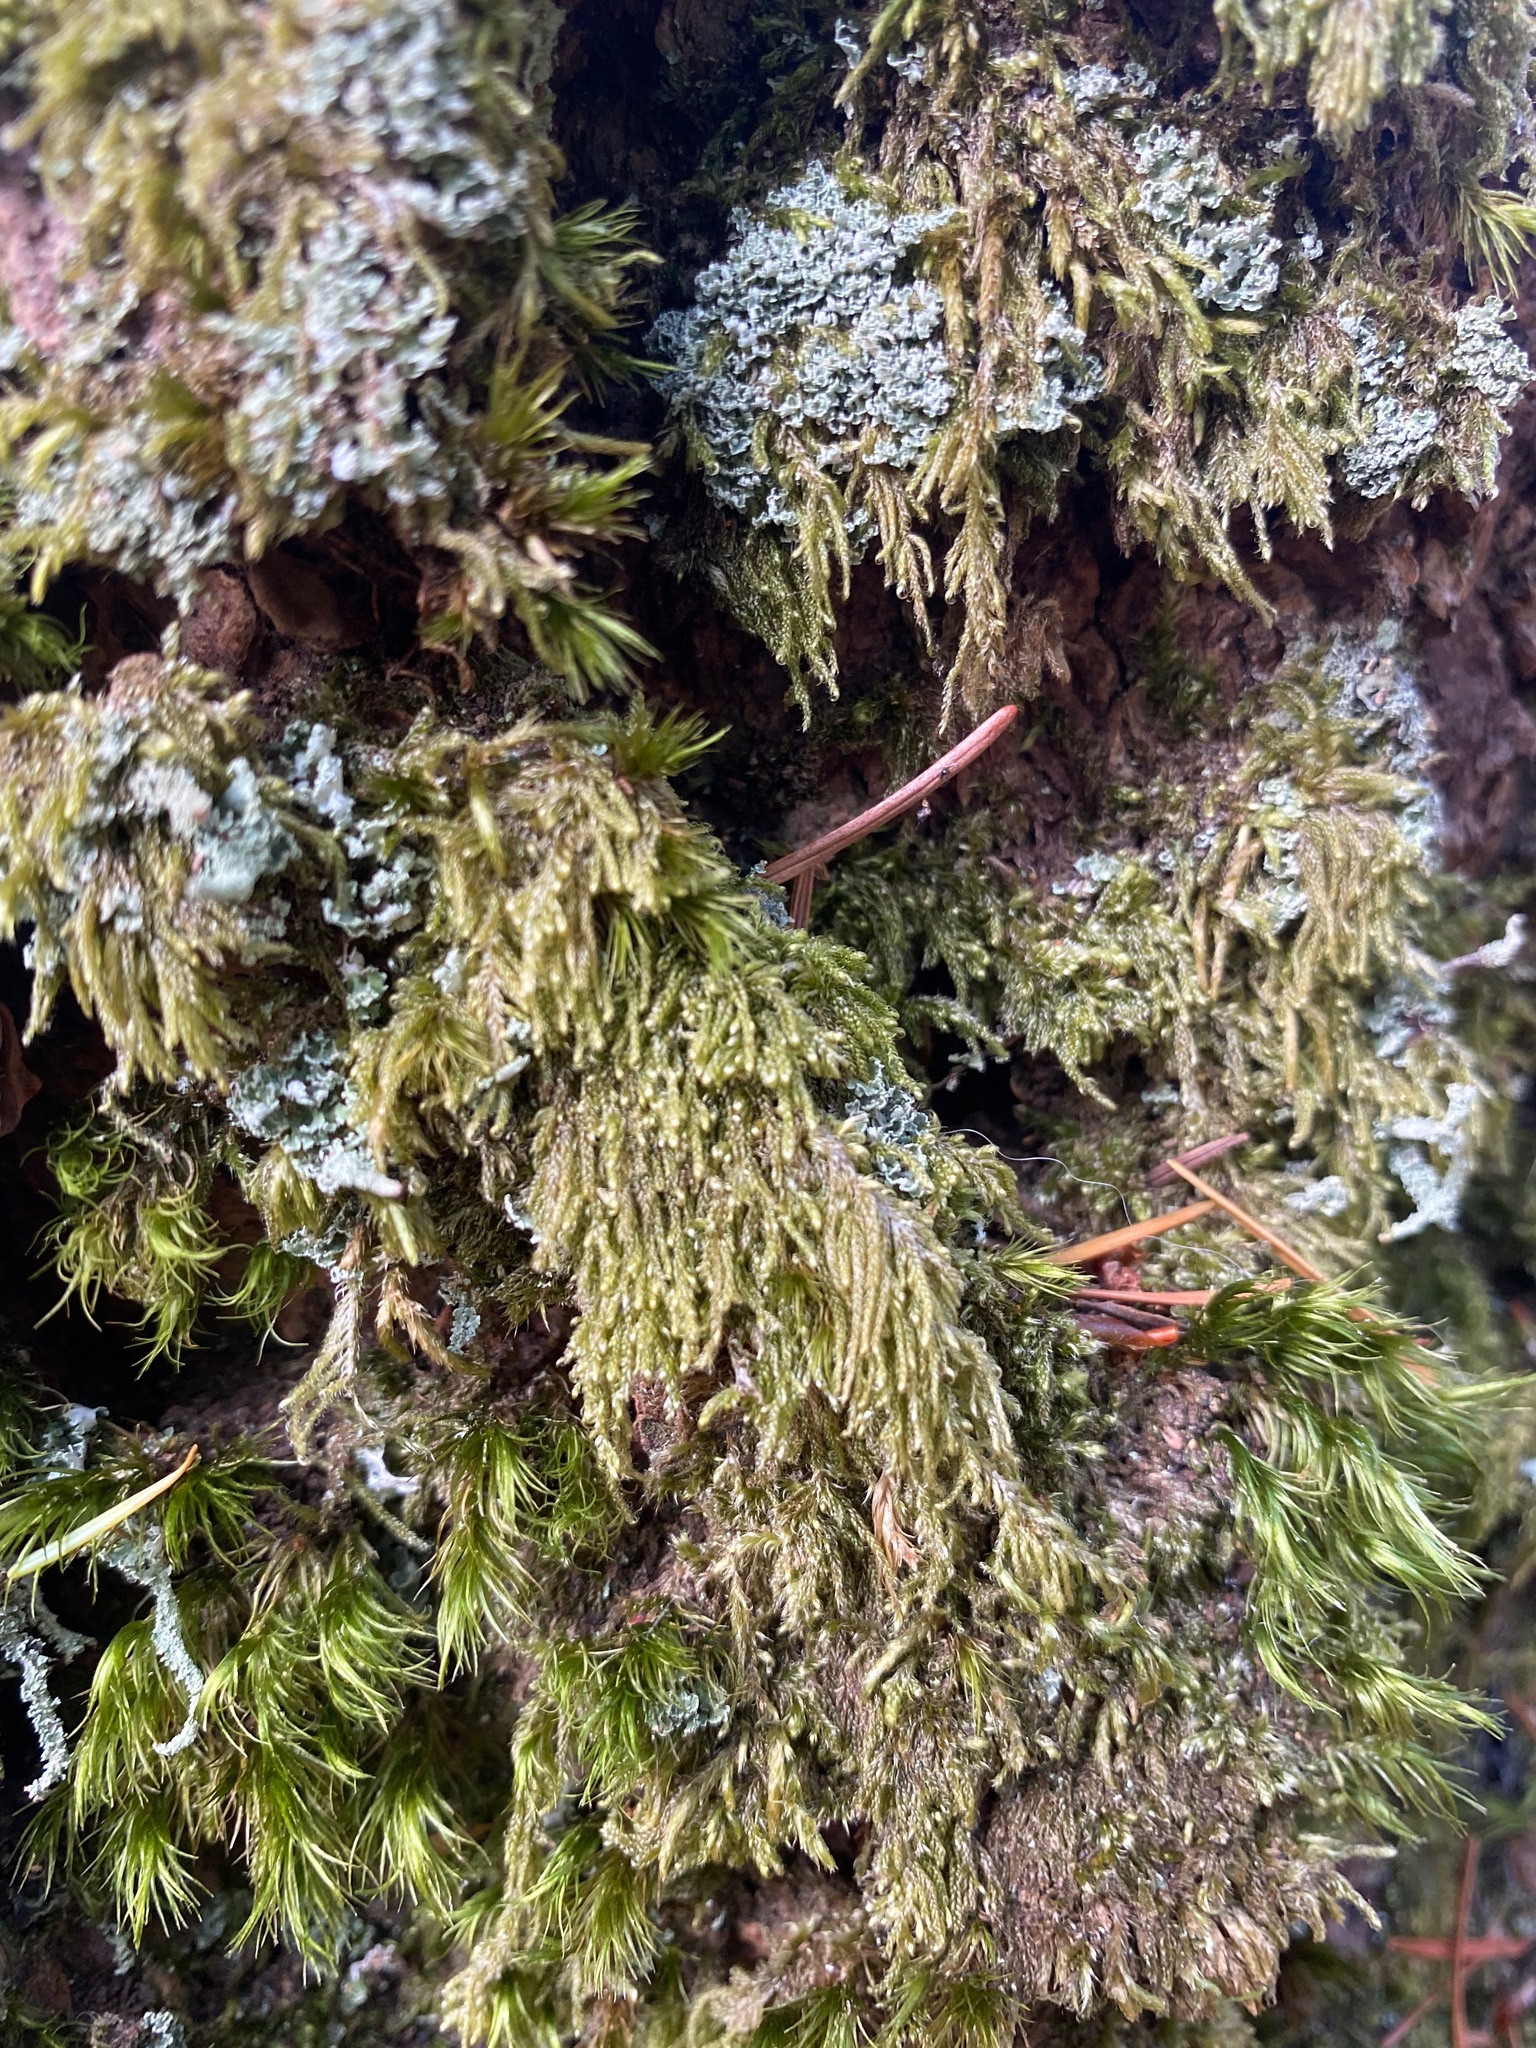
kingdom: Plantae
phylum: Bryophyta
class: Bryopsida
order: Hypnales
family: Pylaisiadelphaceae
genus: Trochophyllohypnum
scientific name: Trochophyllohypnum circinale
